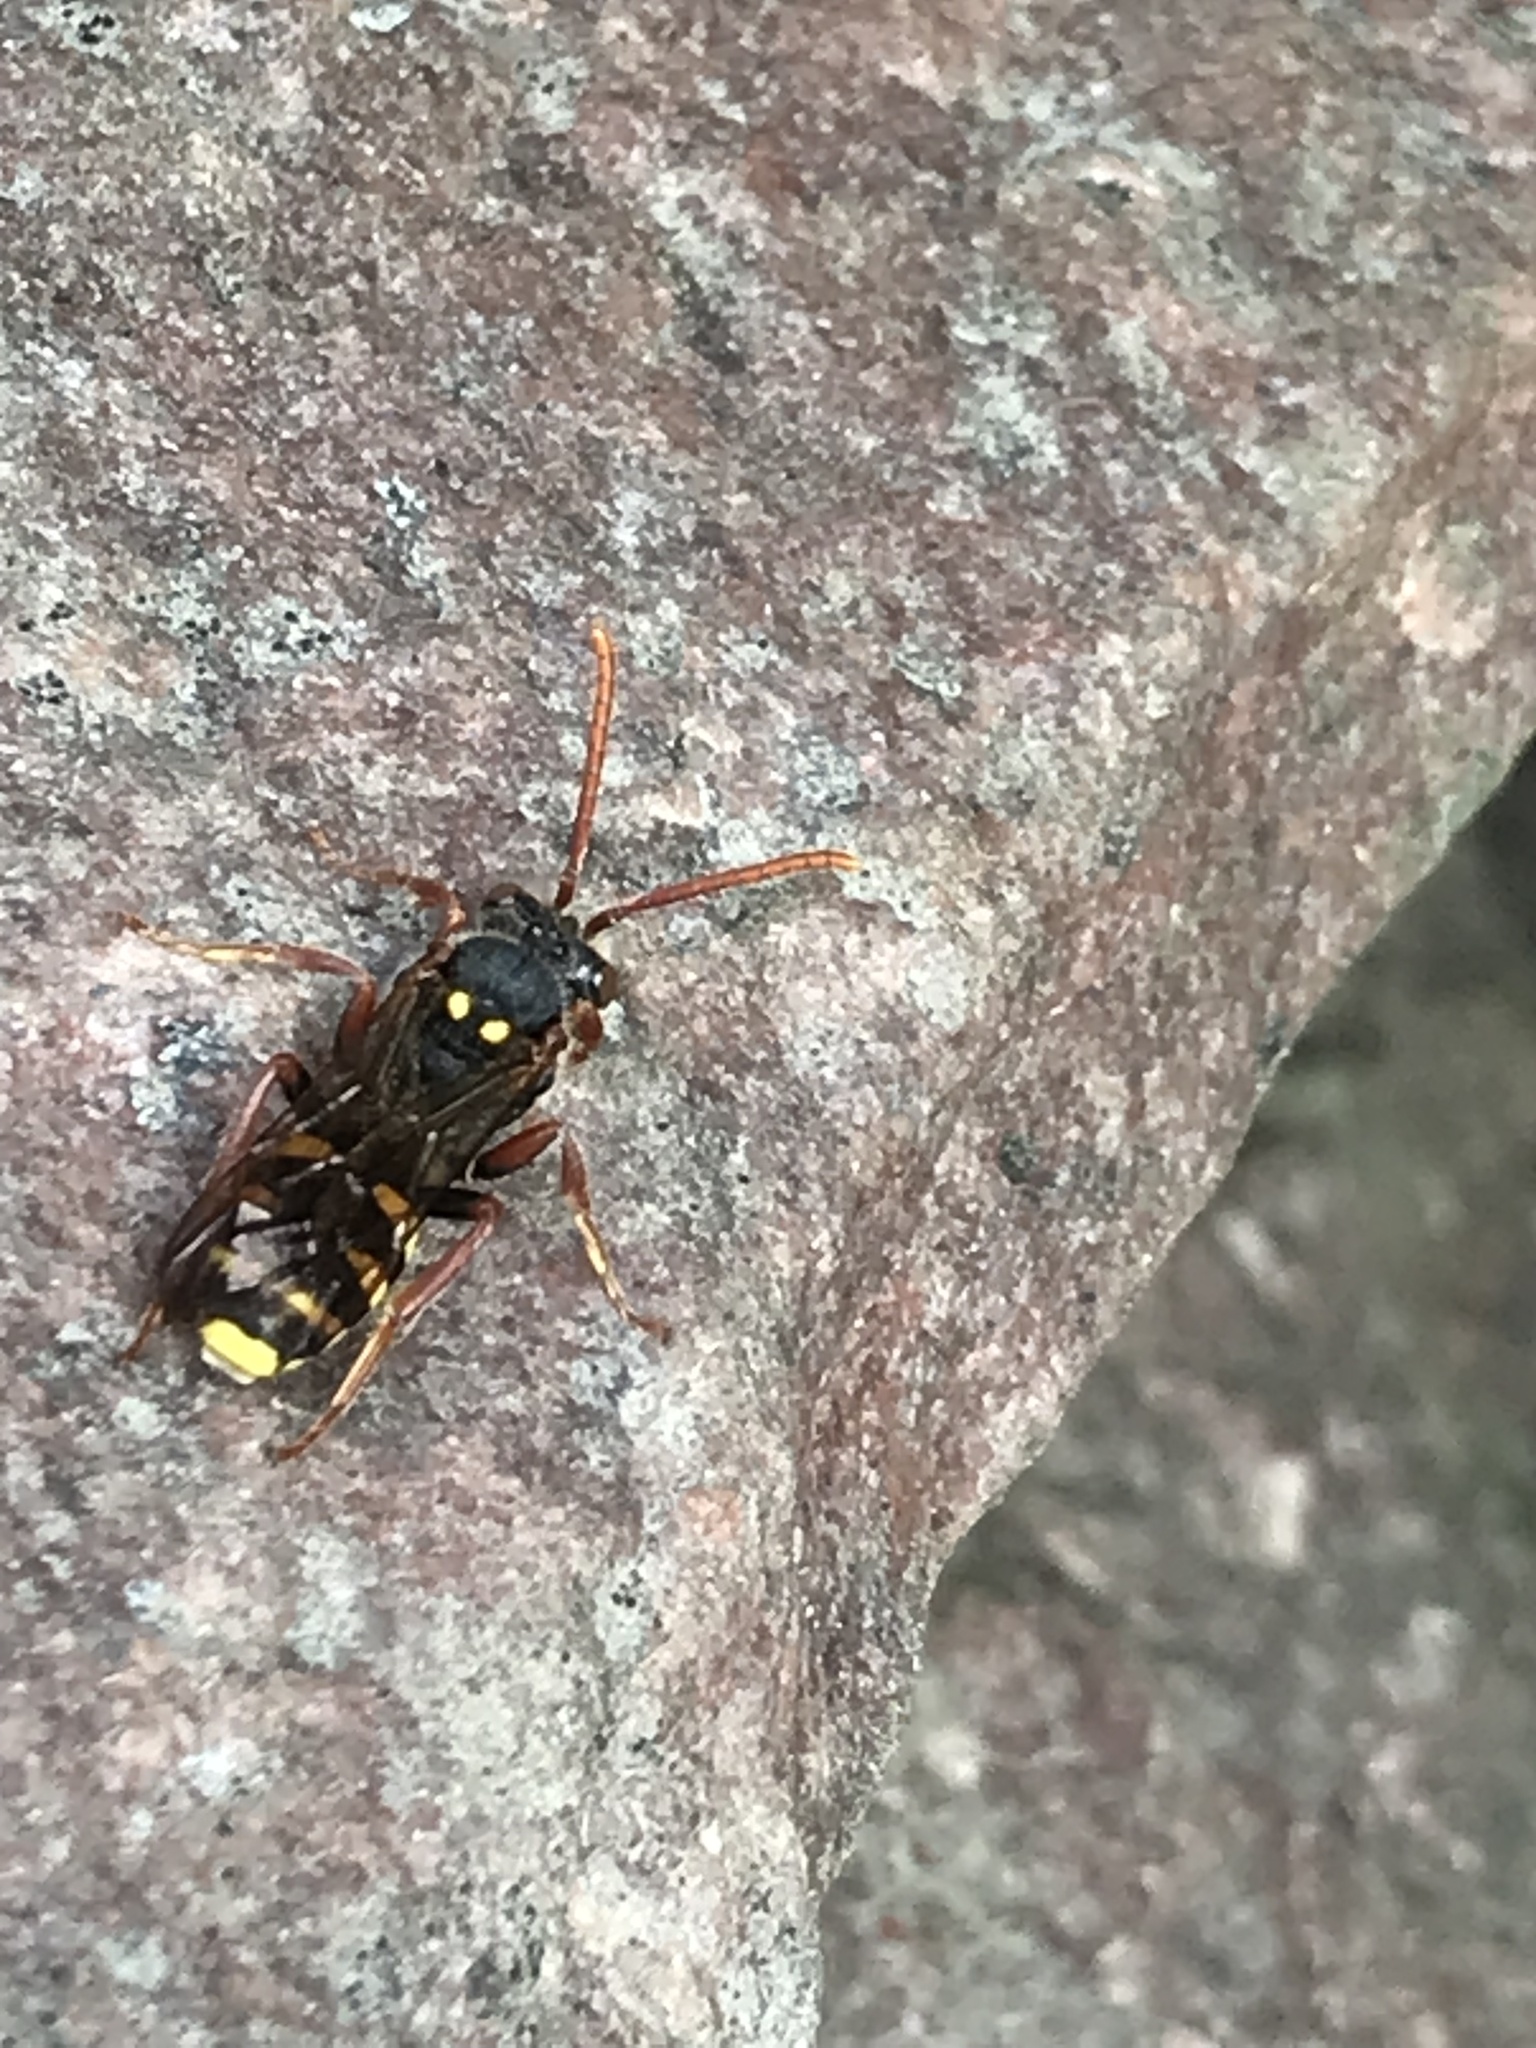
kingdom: Animalia
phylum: Arthropoda
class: Insecta
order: Hymenoptera
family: Apidae
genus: Nomada
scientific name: Nomada marshamella
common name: Marsham's nomad bee
